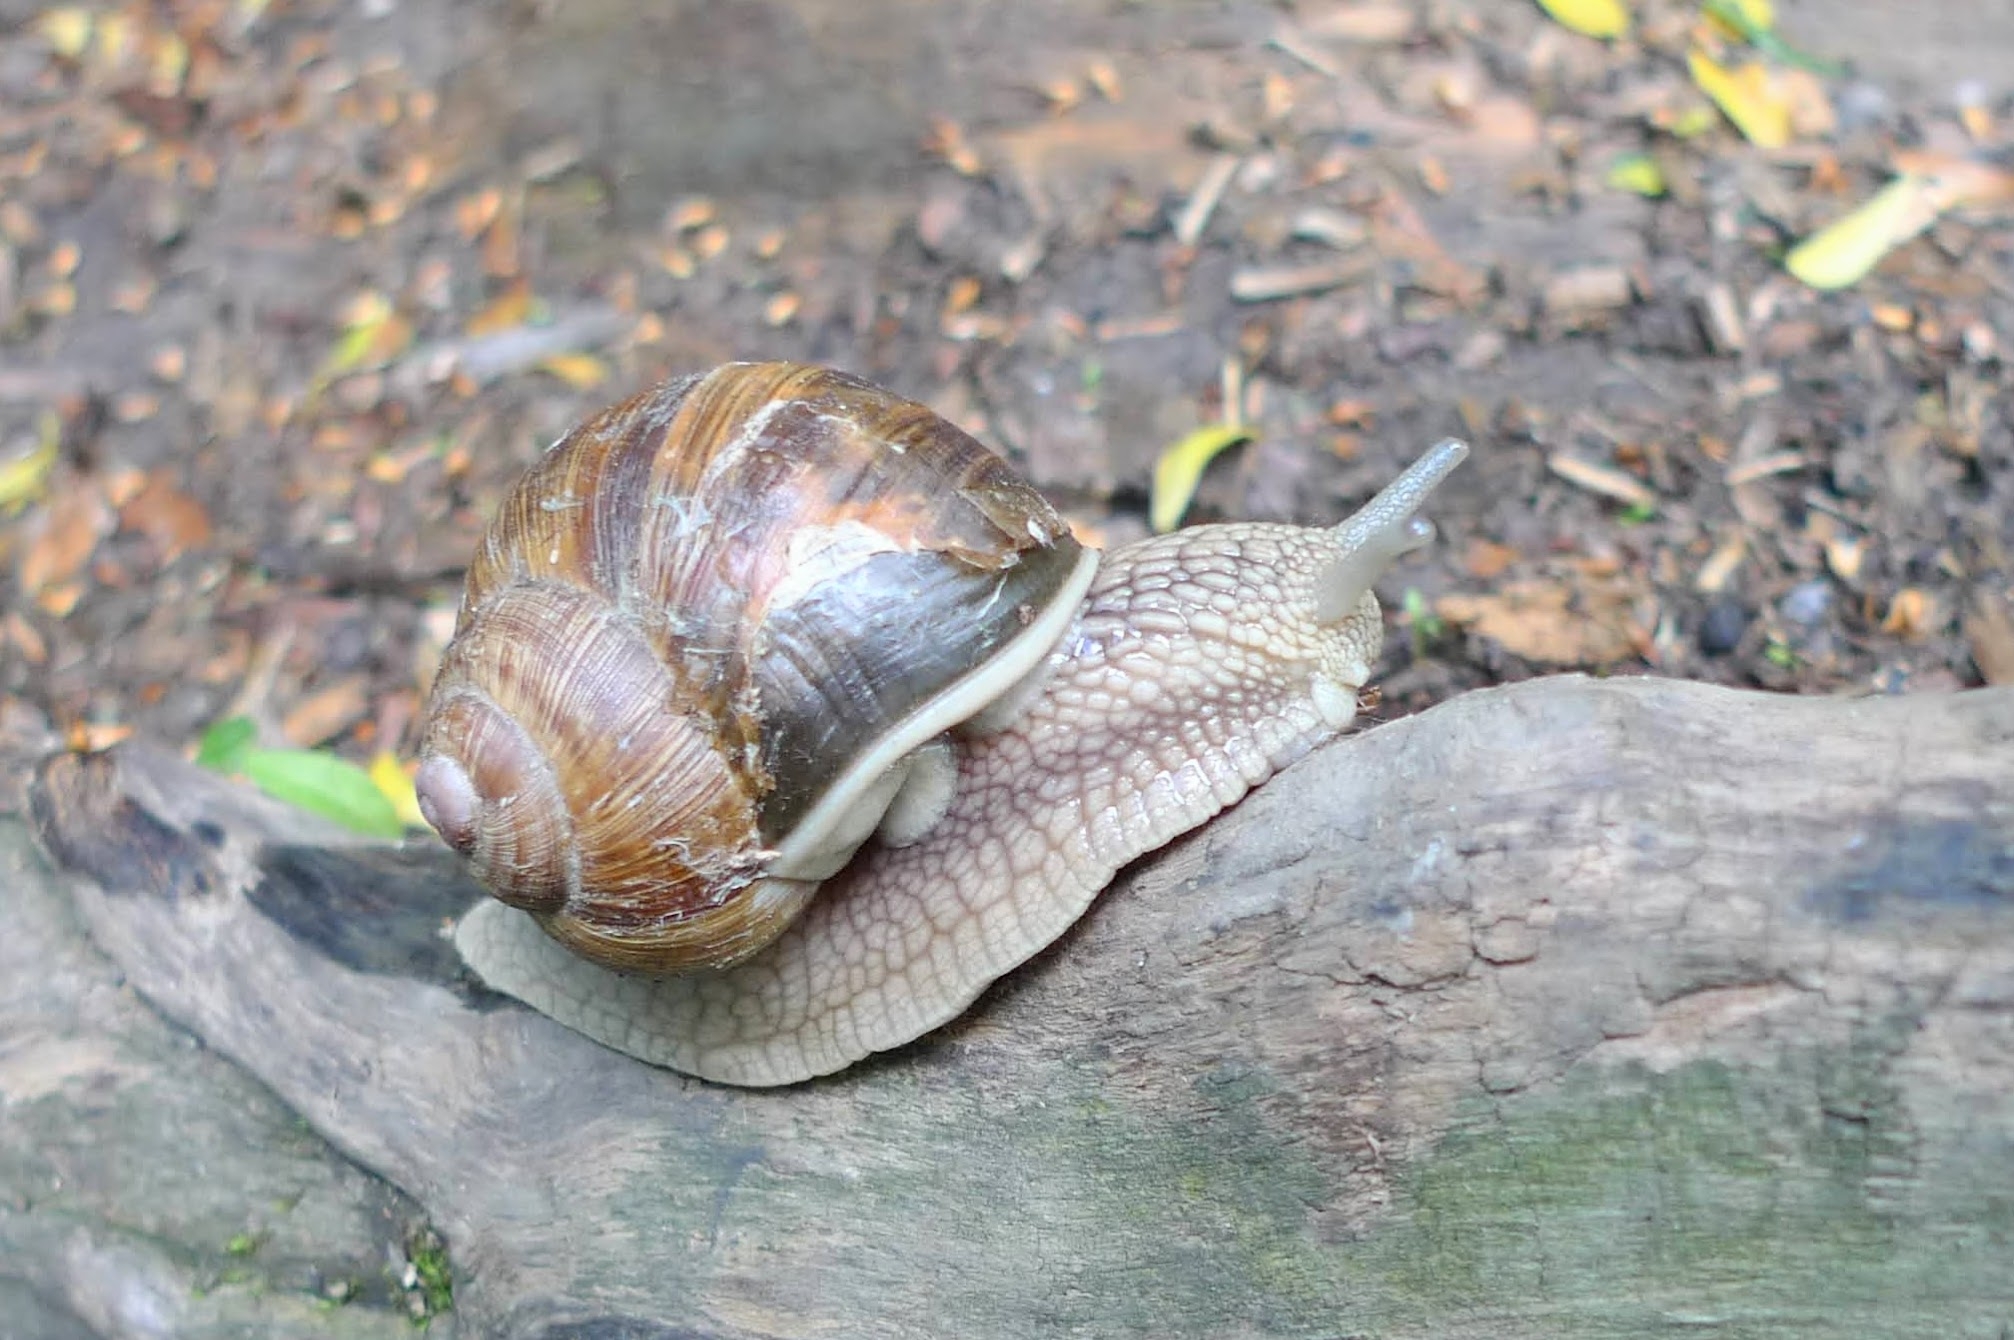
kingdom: Animalia
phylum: Mollusca
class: Gastropoda
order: Stylommatophora
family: Helicidae
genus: Helix
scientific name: Helix pomatia
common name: Roman snail
